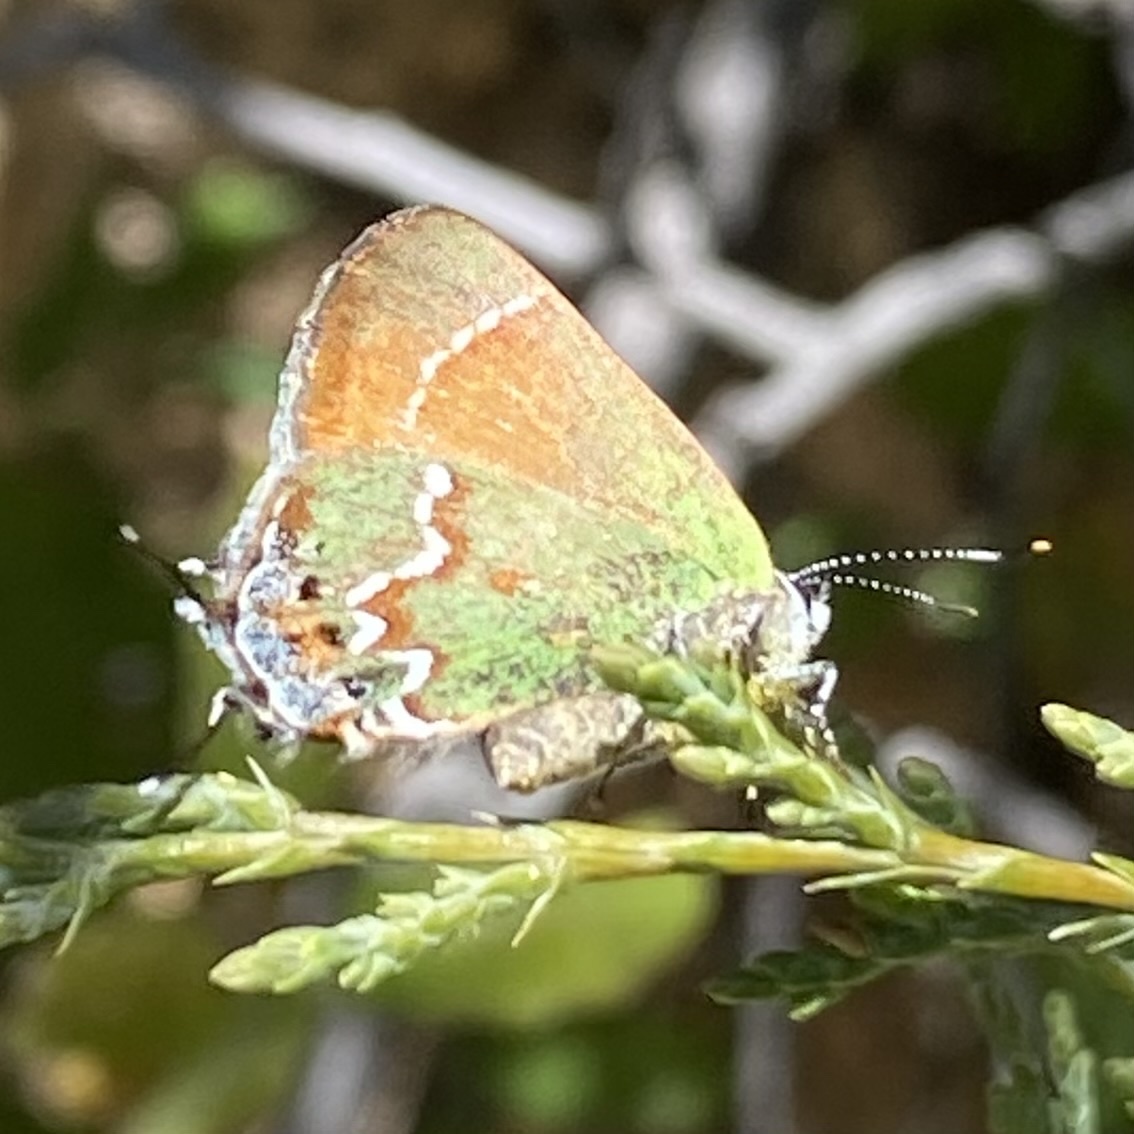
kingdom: Animalia
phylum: Arthropoda
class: Insecta
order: Lepidoptera
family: Lycaenidae
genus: Mitoura
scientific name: Mitoura gryneus
